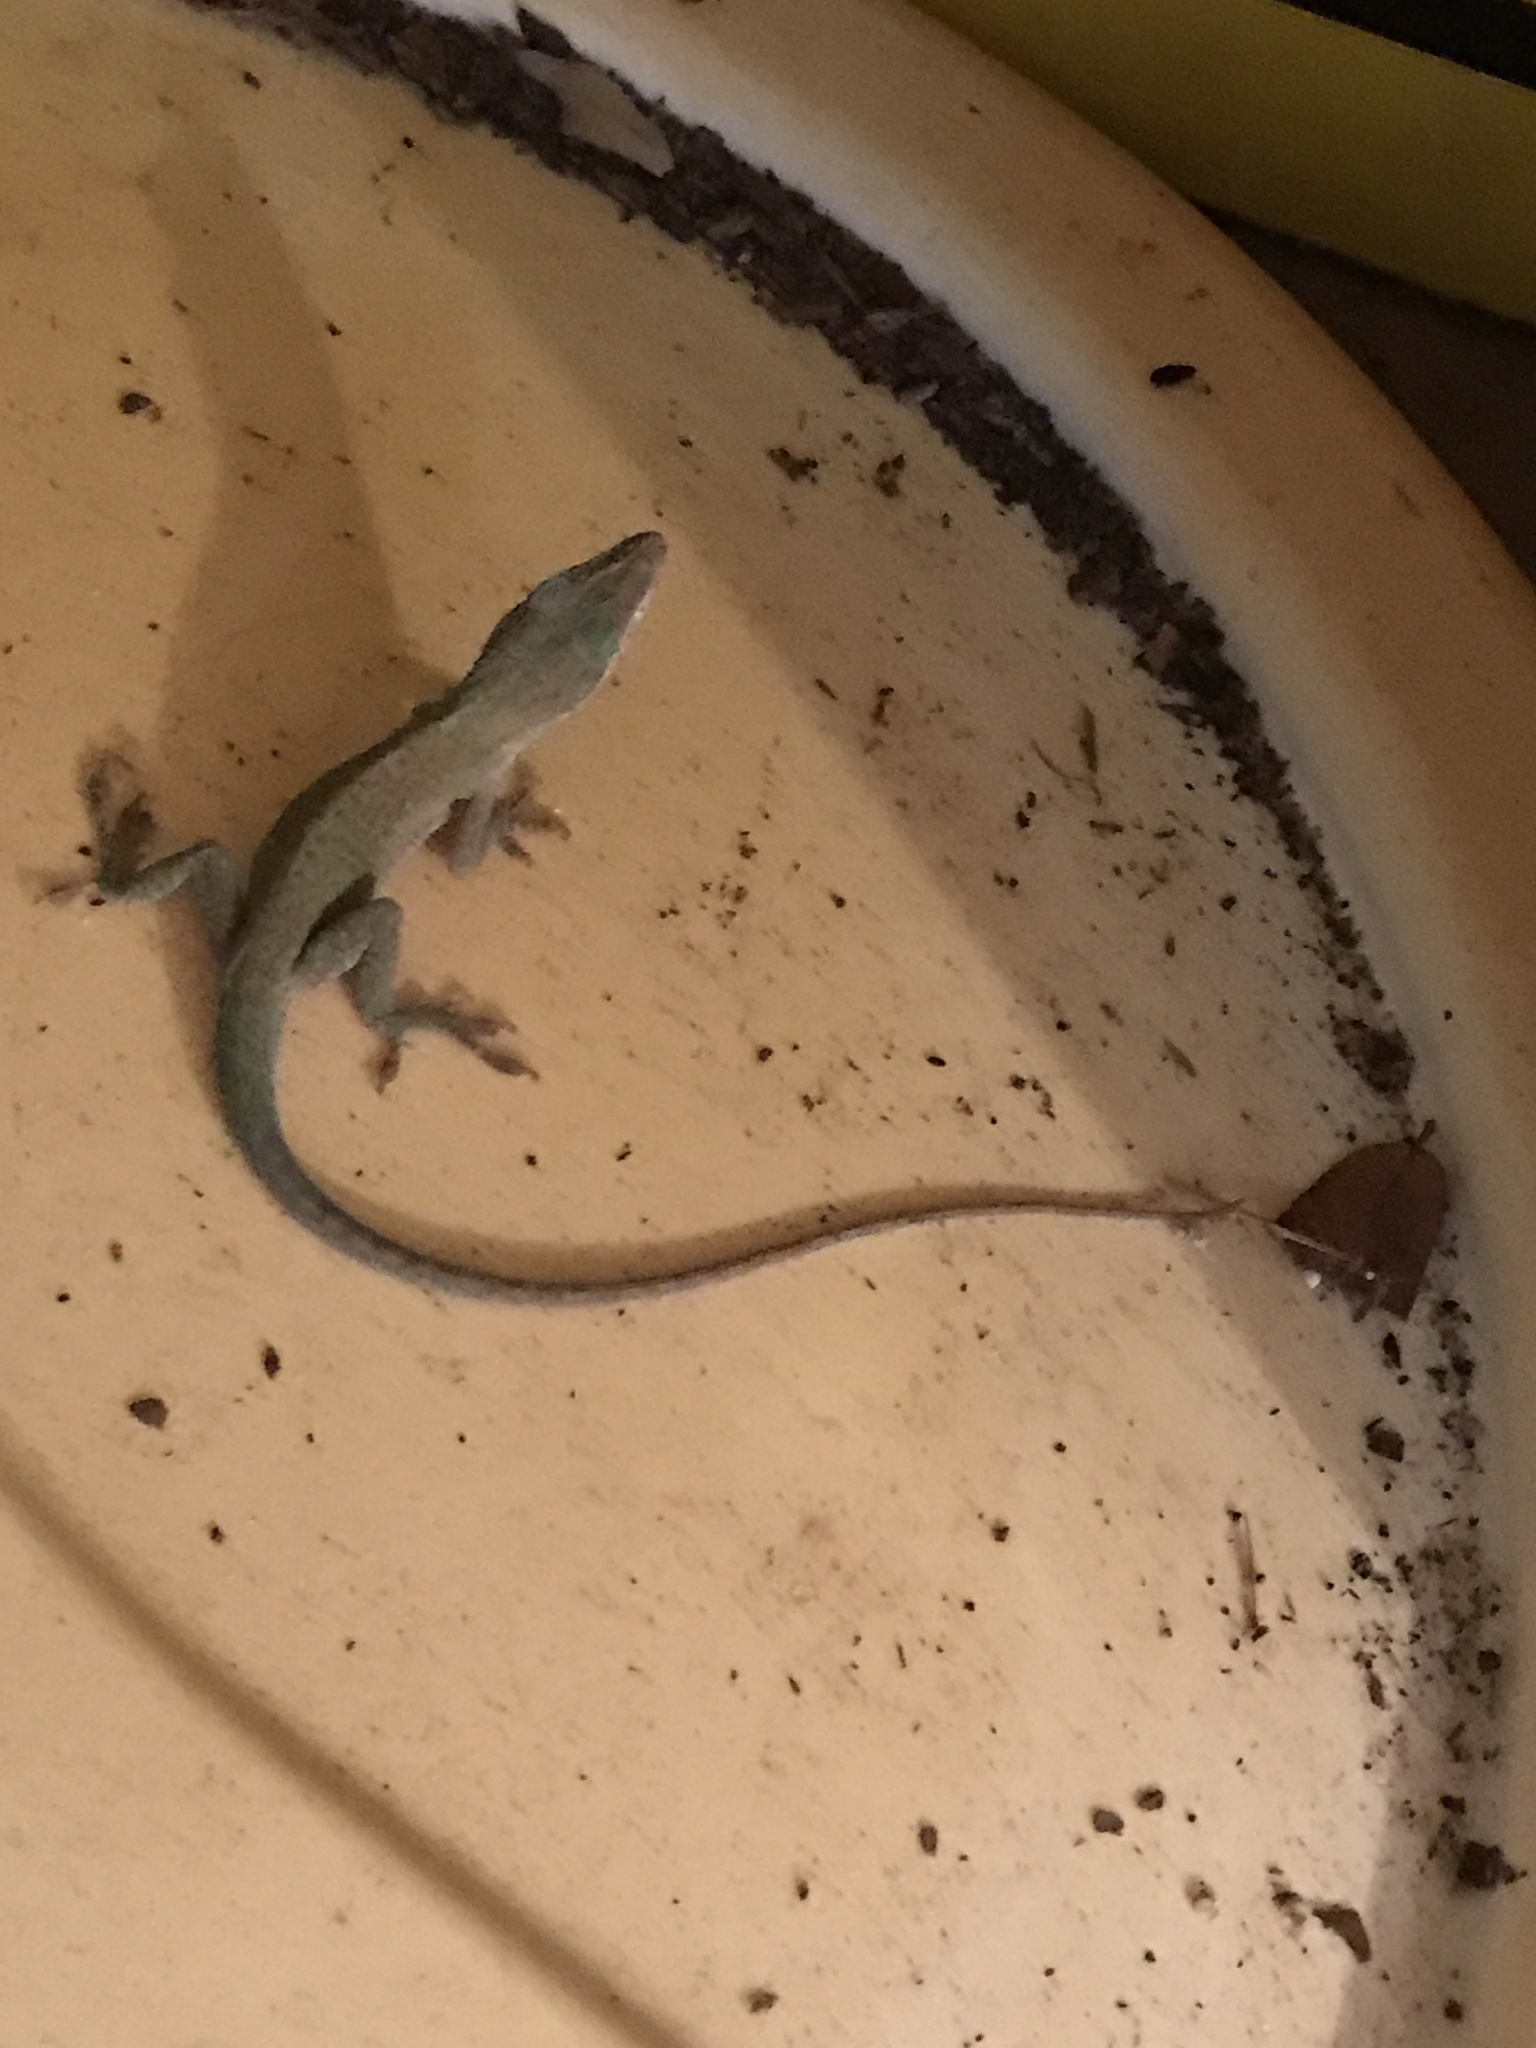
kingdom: Animalia
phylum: Chordata
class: Squamata
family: Dactyloidae
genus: Anolis
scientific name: Anolis carolinensis
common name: Green anole
